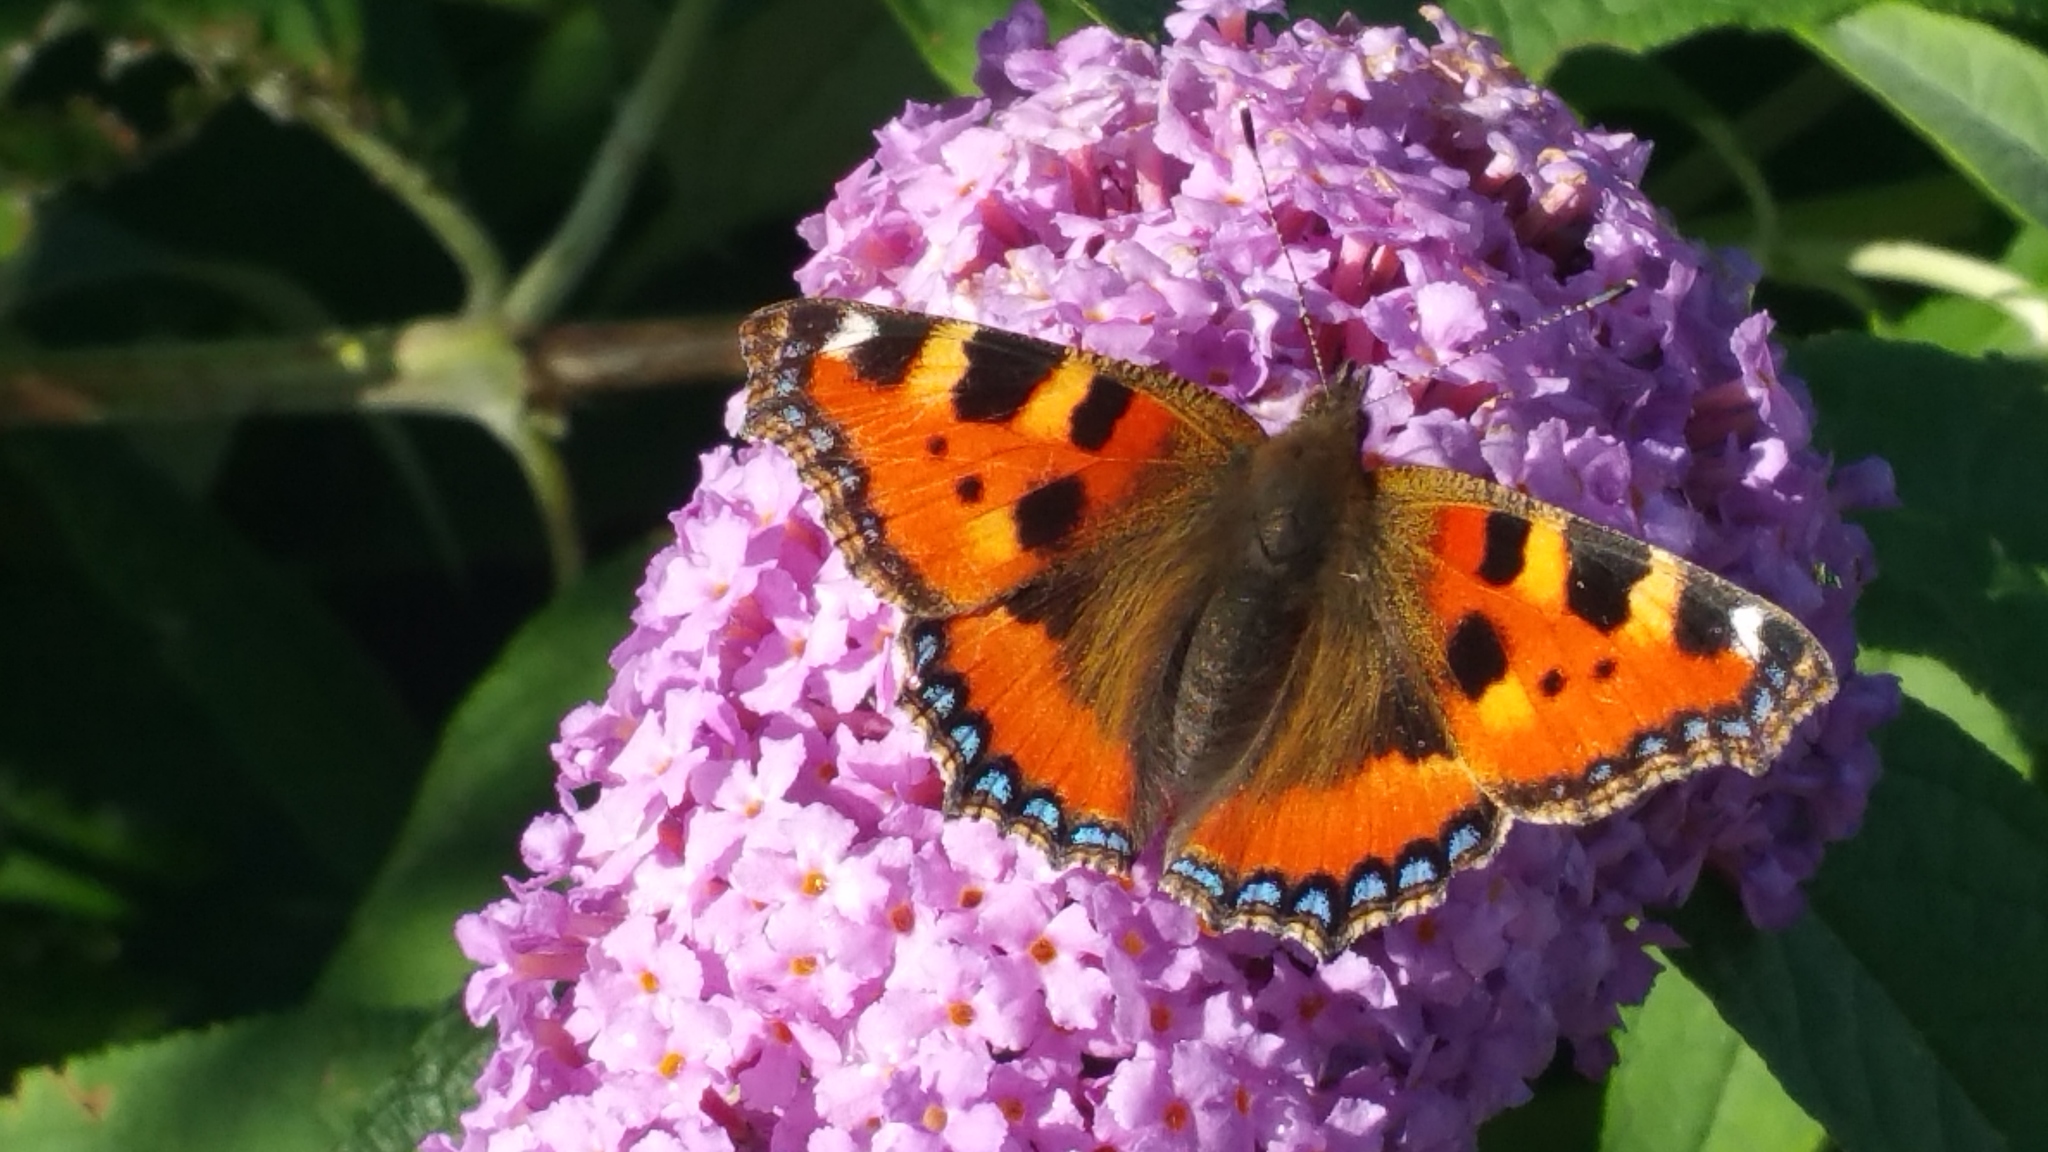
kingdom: Animalia
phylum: Arthropoda
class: Insecta
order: Lepidoptera
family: Nymphalidae
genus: Aglais
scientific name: Aglais urticae
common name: Small tortoiseshell
